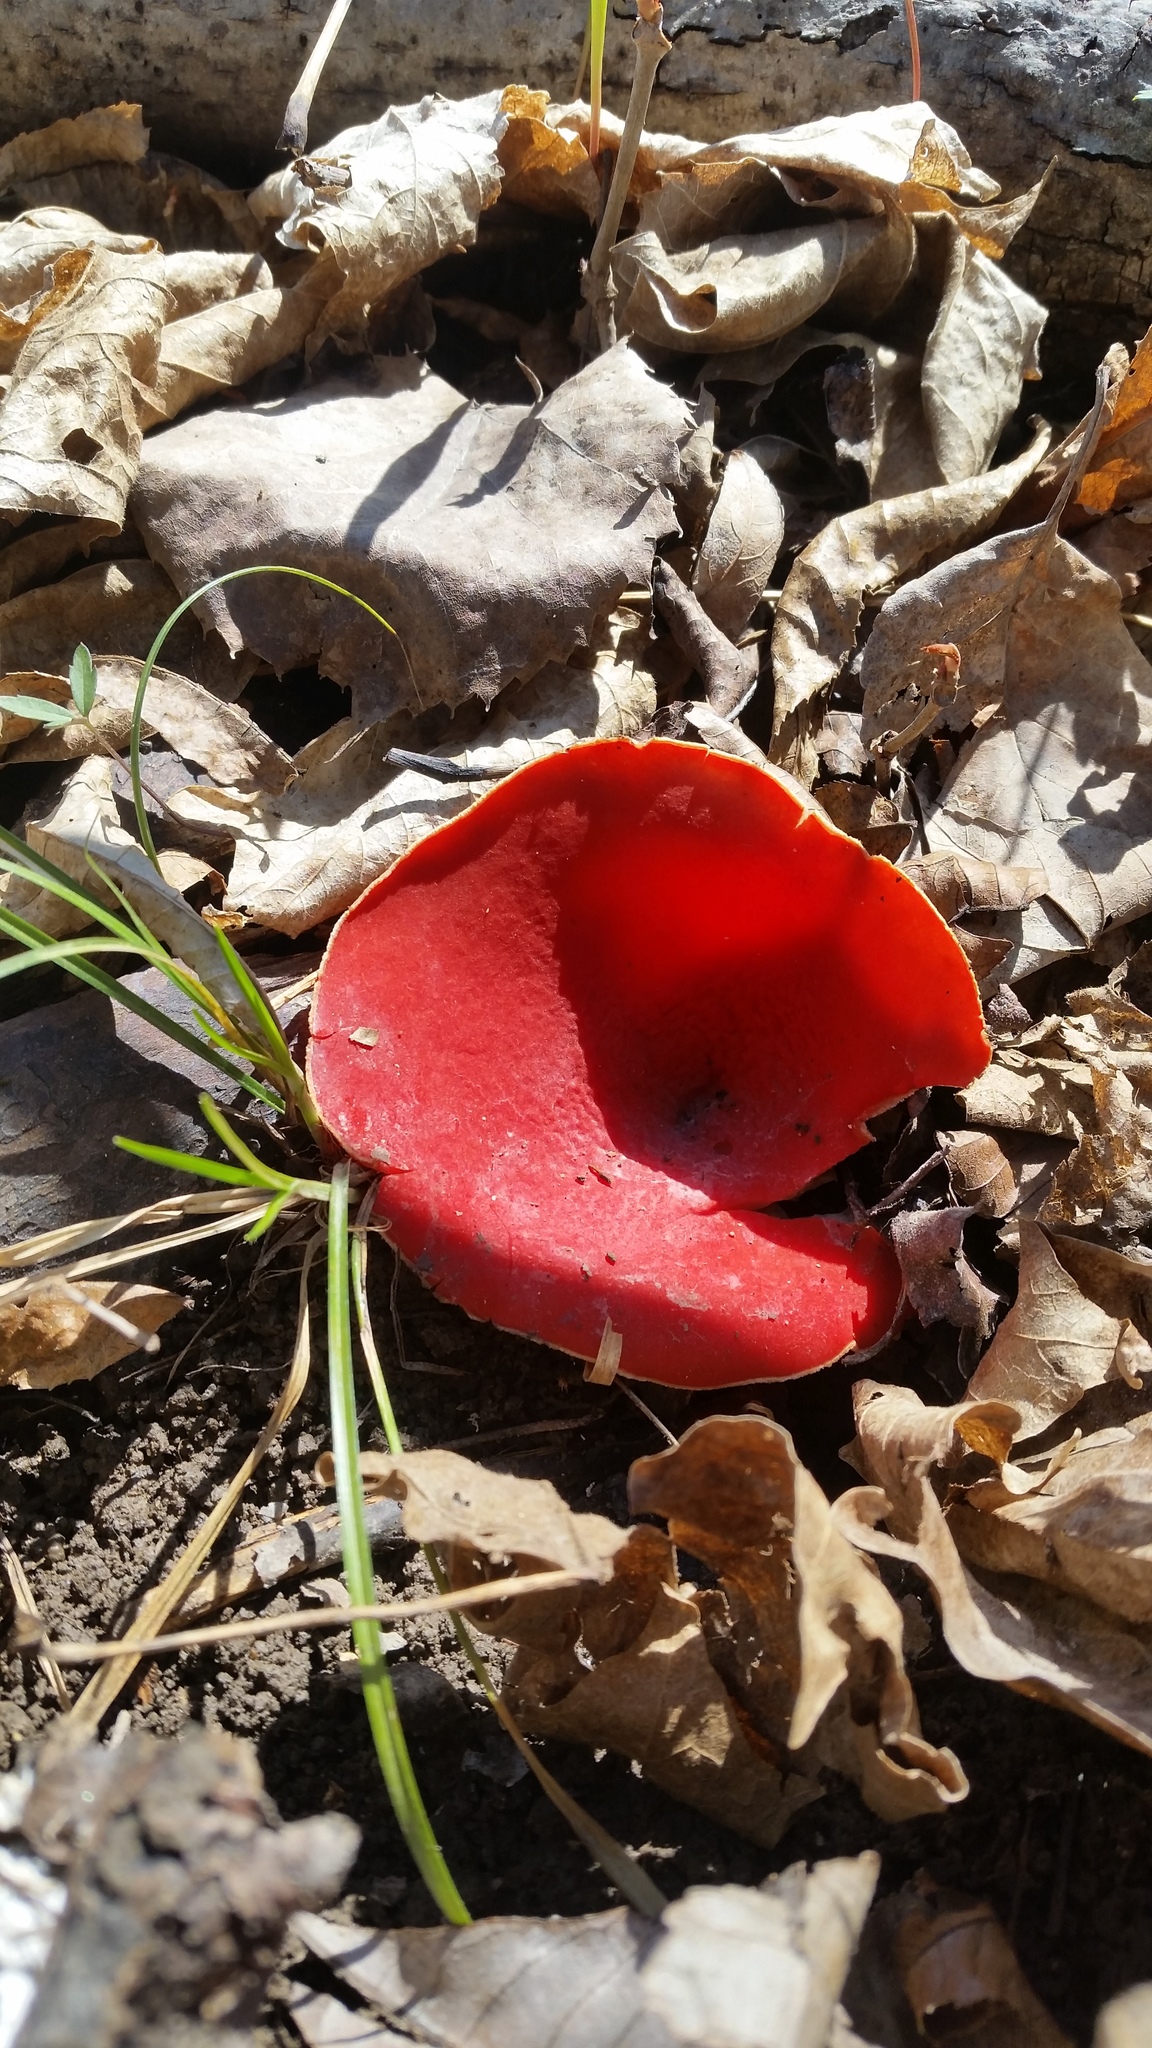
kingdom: Fungi
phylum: Ascomycota
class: Pezizomycetes
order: Pezizales
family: Sarcoscyphaceae
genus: Sarcoscypha
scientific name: Sarcoscypha
